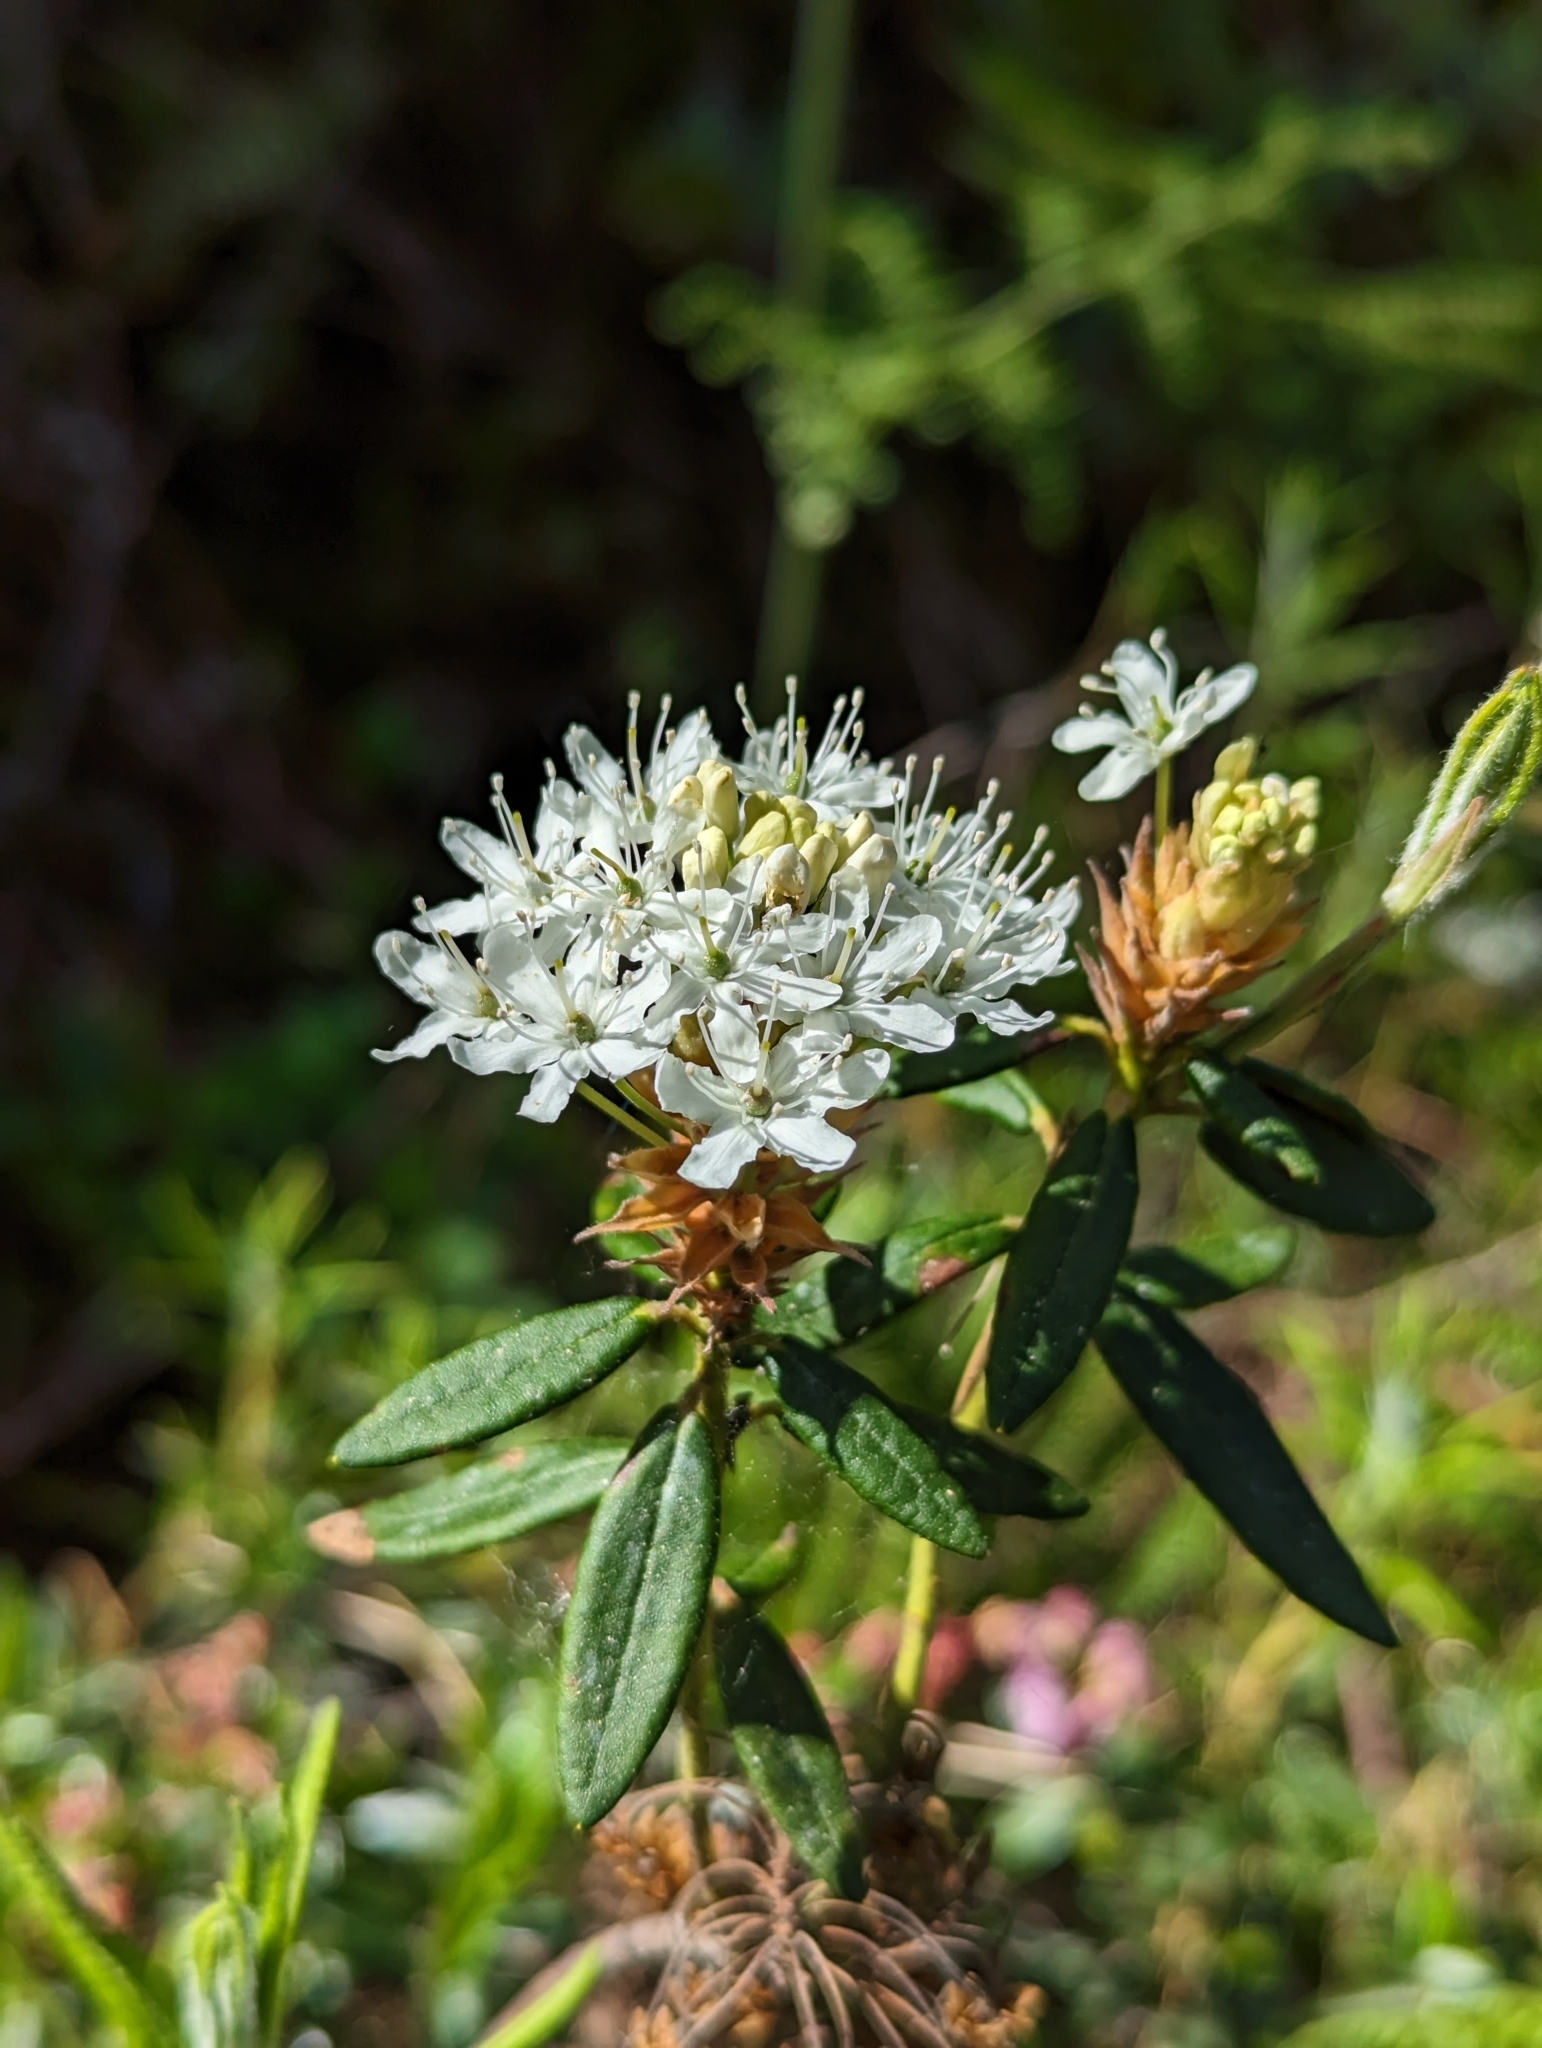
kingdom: Plantae
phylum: Tracheophyta
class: Magnoliopsida
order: Ericales
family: Ericaceae
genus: Rhododendron
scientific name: Rhododendron groenlandicum
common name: Bog labrador tea
